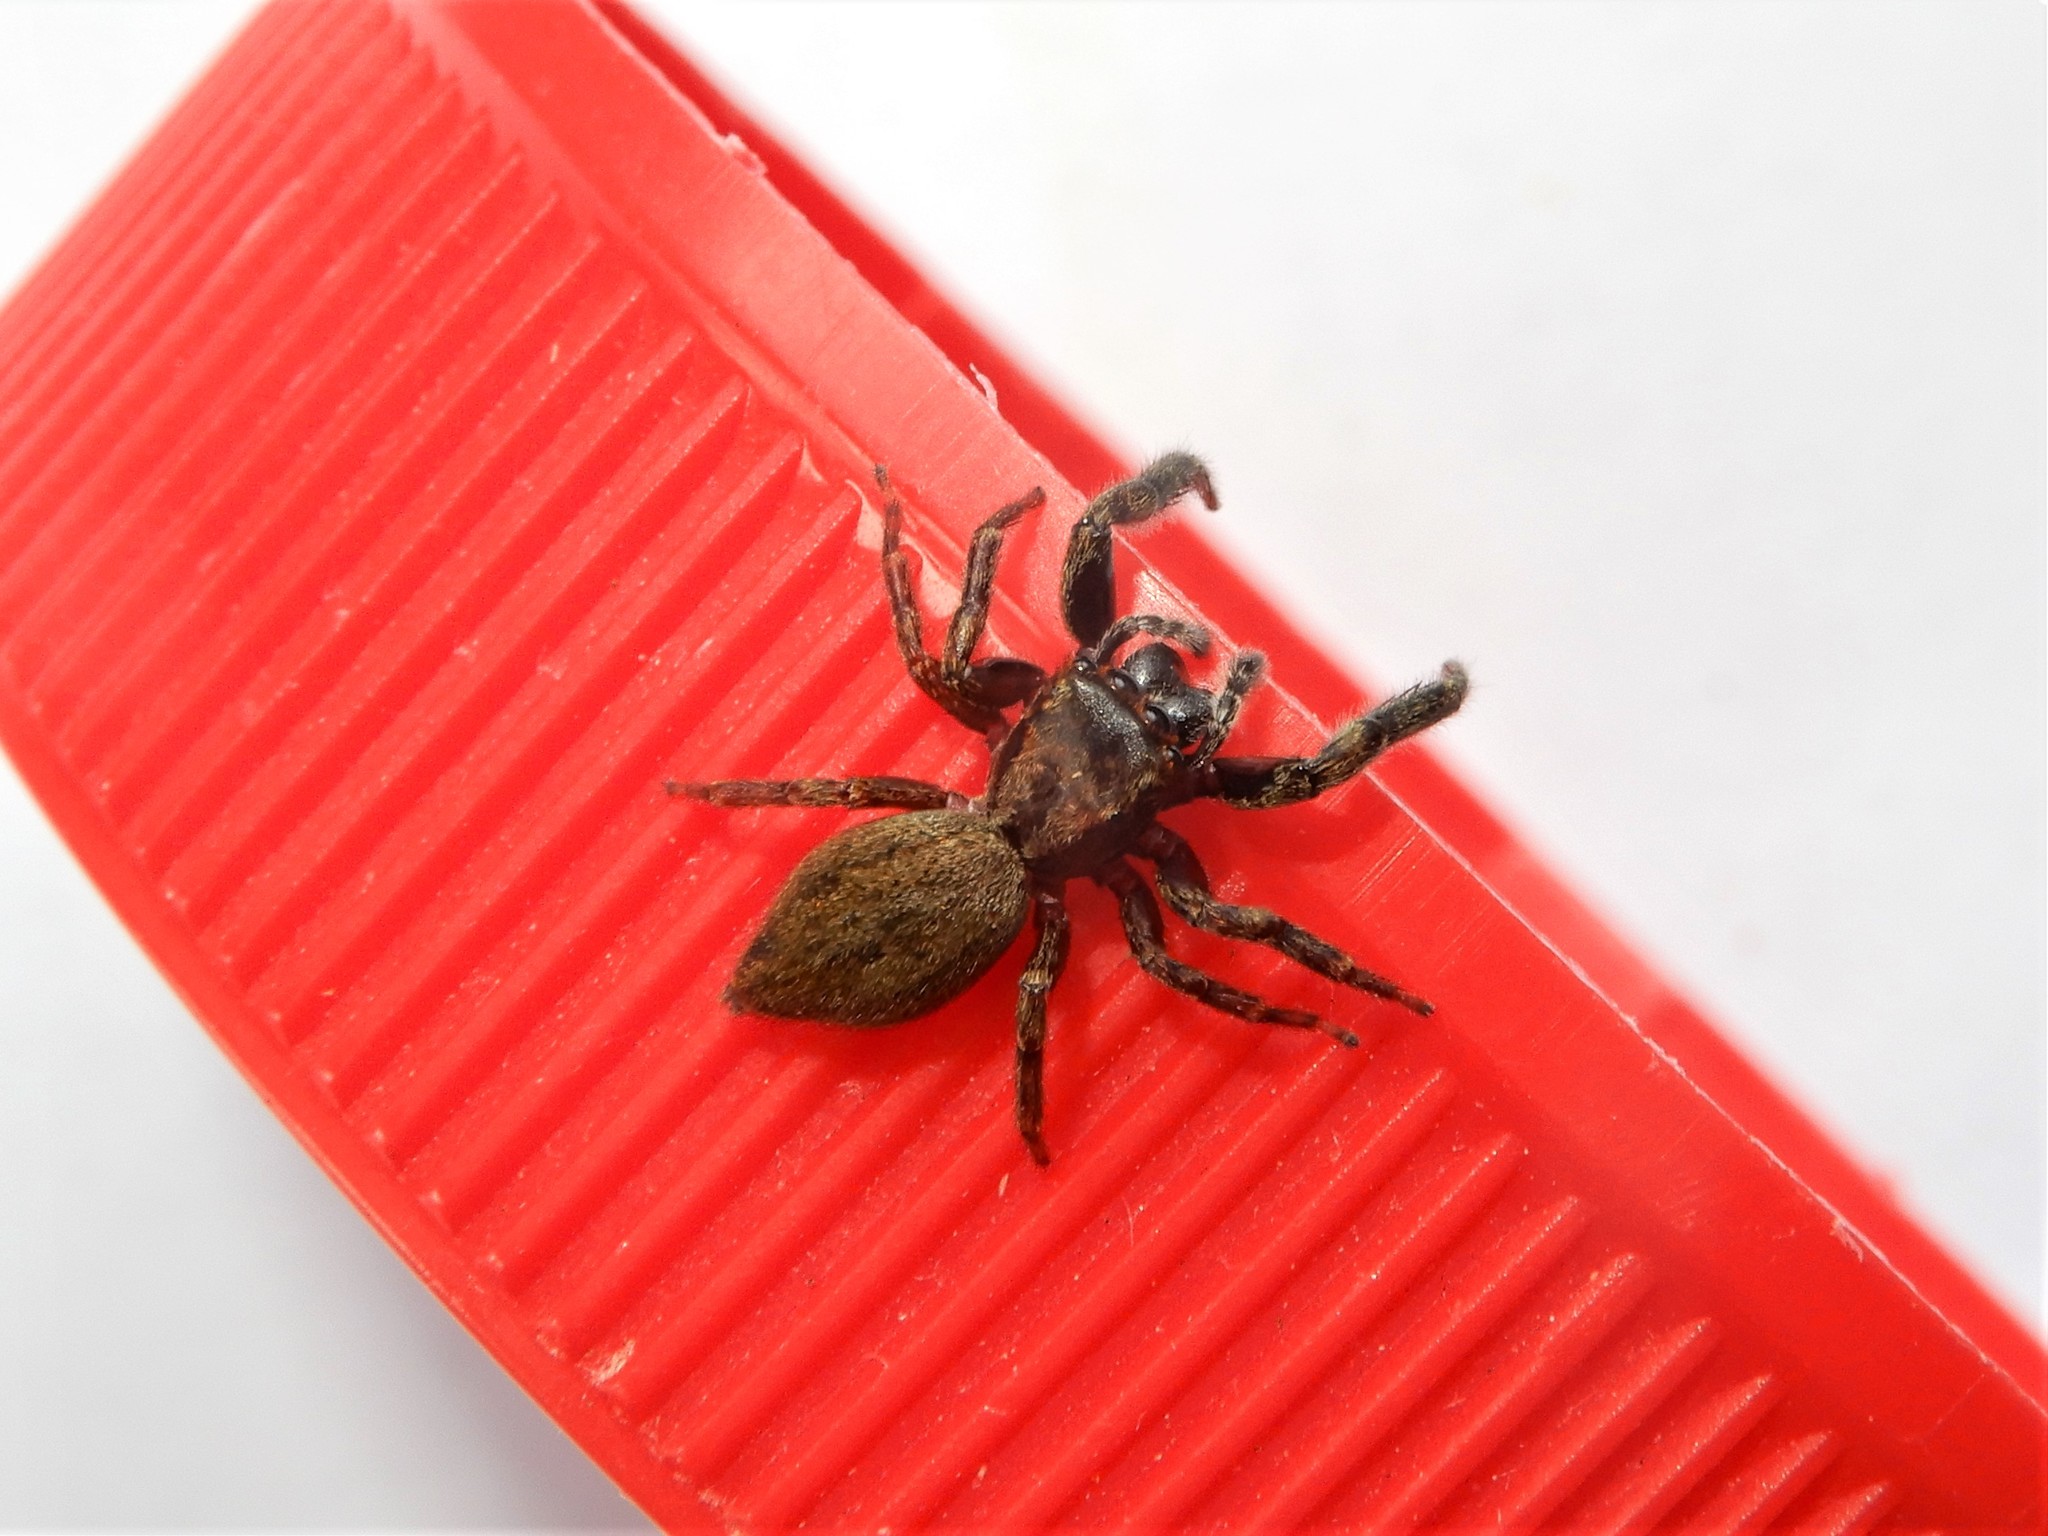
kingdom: Animalia
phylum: Arthropoda
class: Arachnida
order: Araneae
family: Salticidae
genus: Trite
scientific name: Trite auricoma
